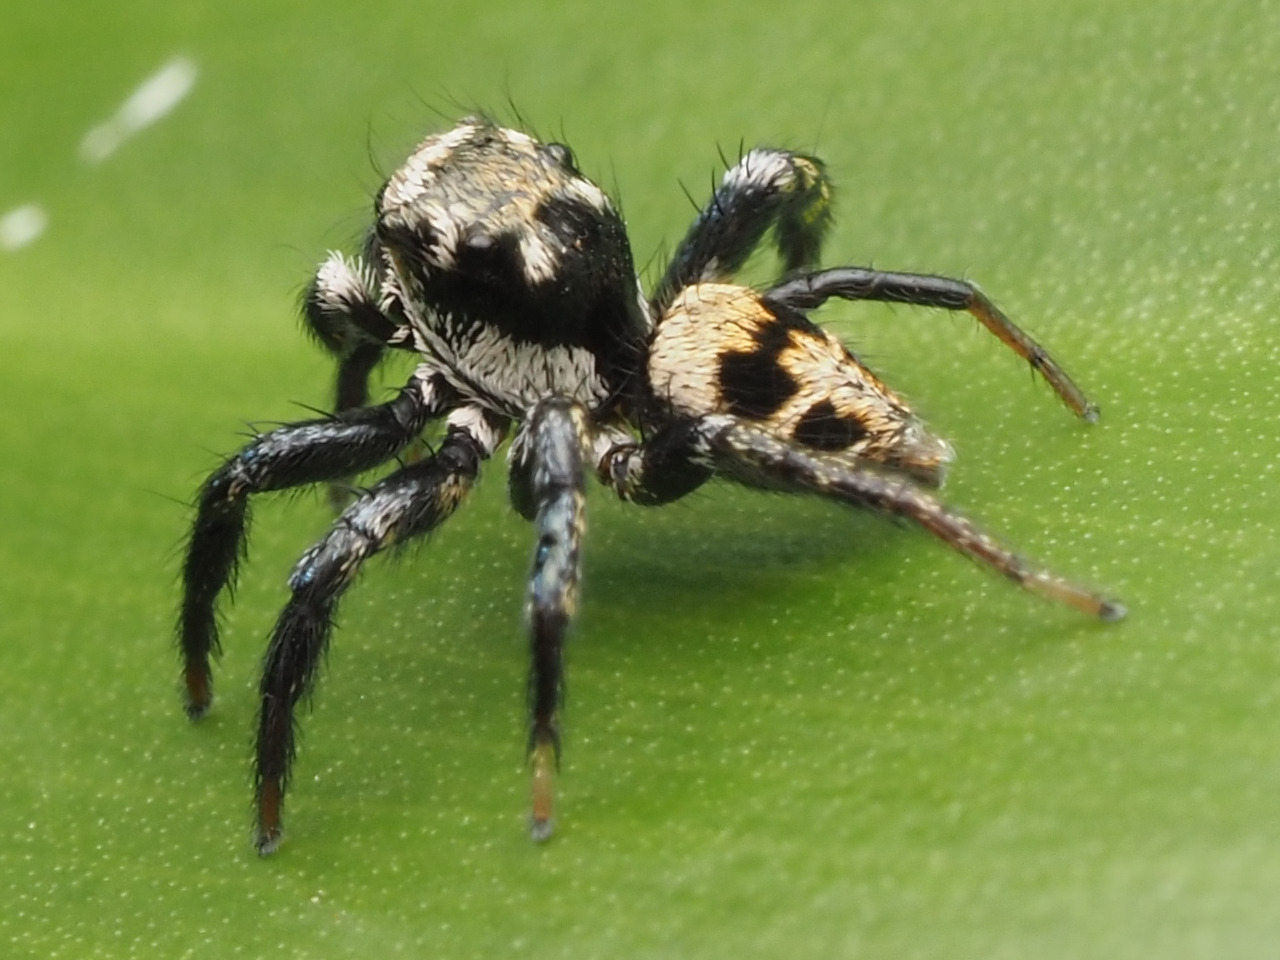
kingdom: Animalia
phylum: Arthropoda
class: Arachnida
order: Araneae
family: Salticidae
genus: Corythalia
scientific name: Corythalia pulchra
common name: Jumping spiders
